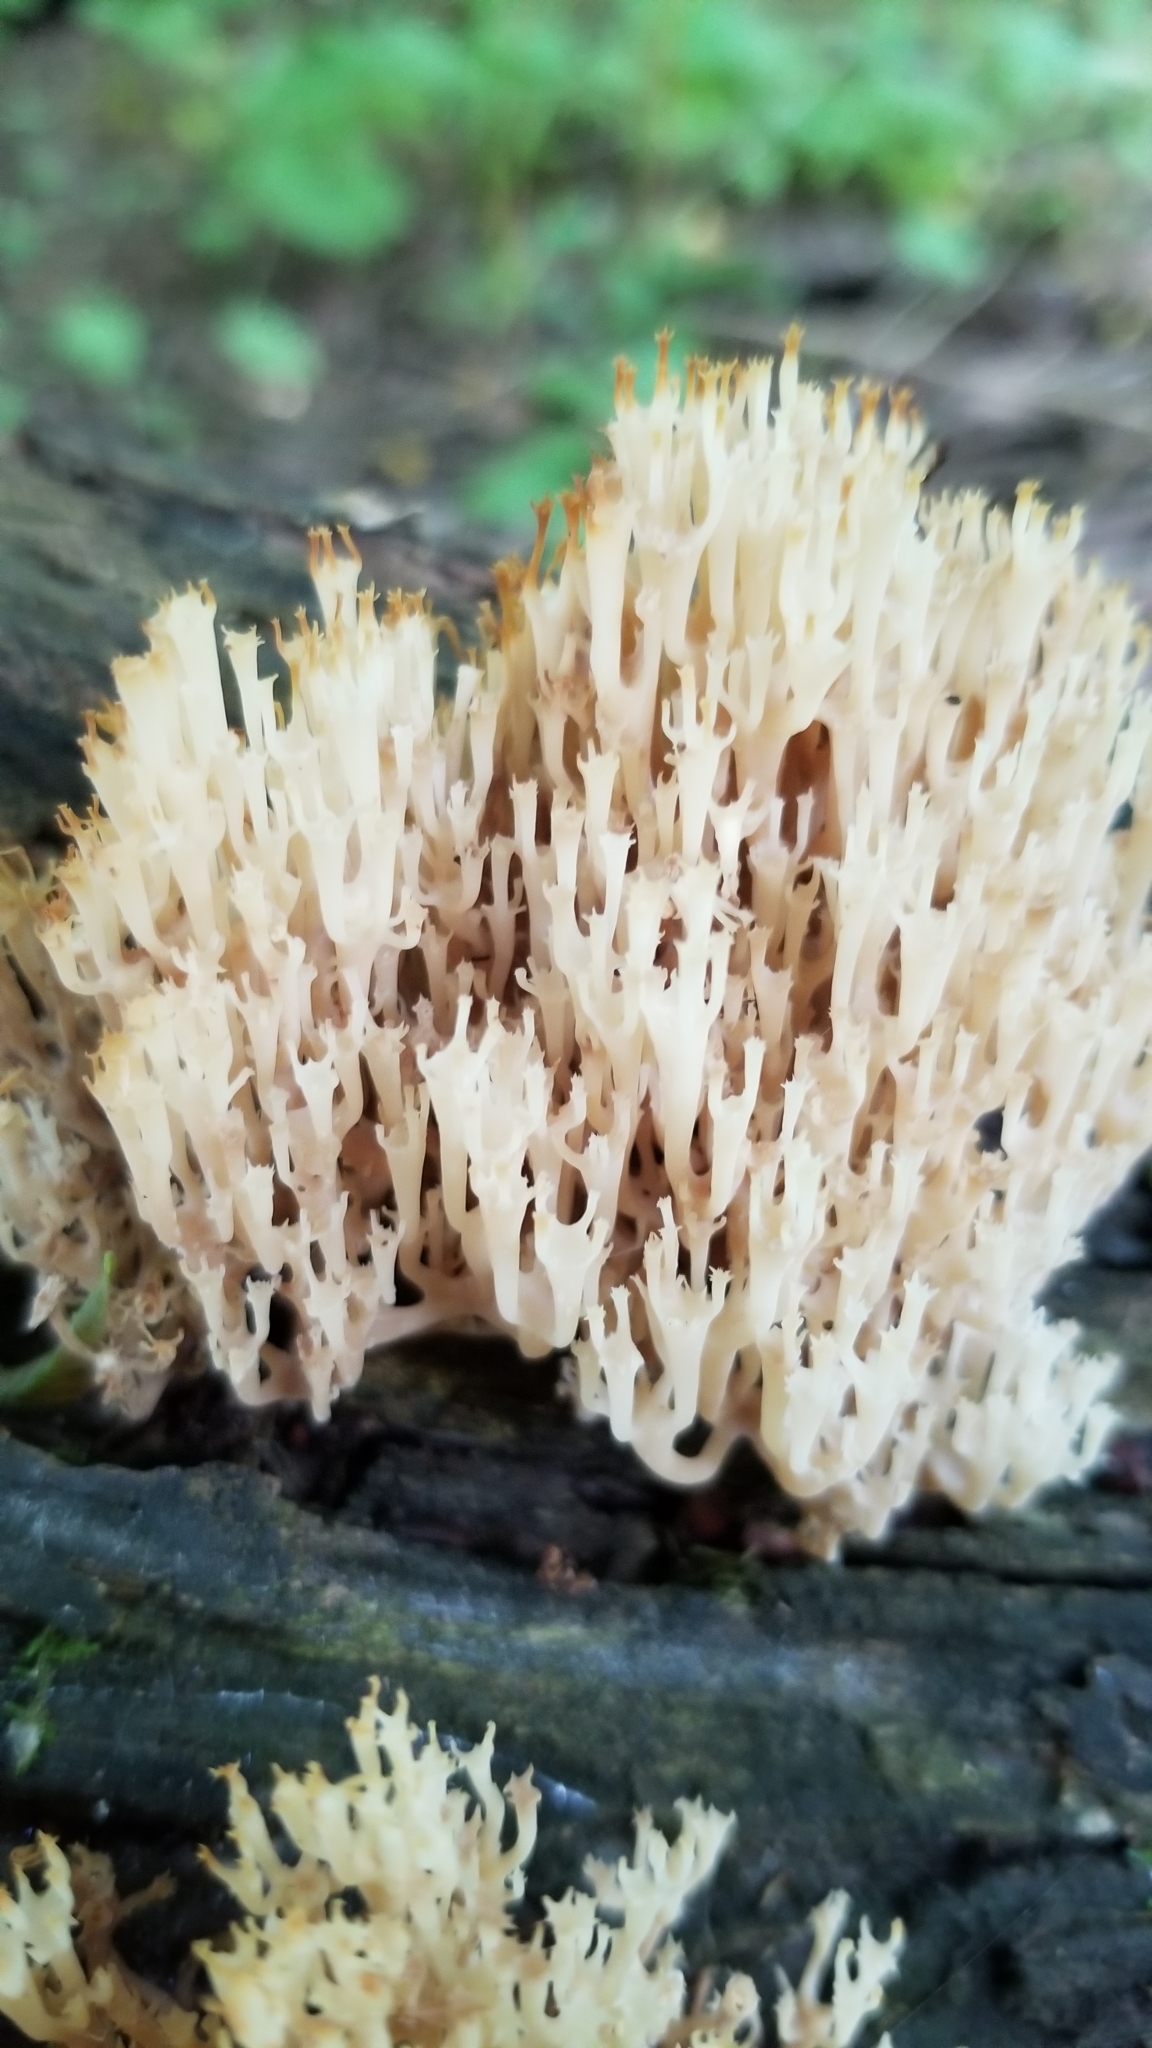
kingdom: Fungi
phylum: Basidiomycota
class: Agaricomycetes
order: Russulales
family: Auriscalpiaceae
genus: Artomyces
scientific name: Artomyces pyxidatus
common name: Crown-tipped coral fungus
